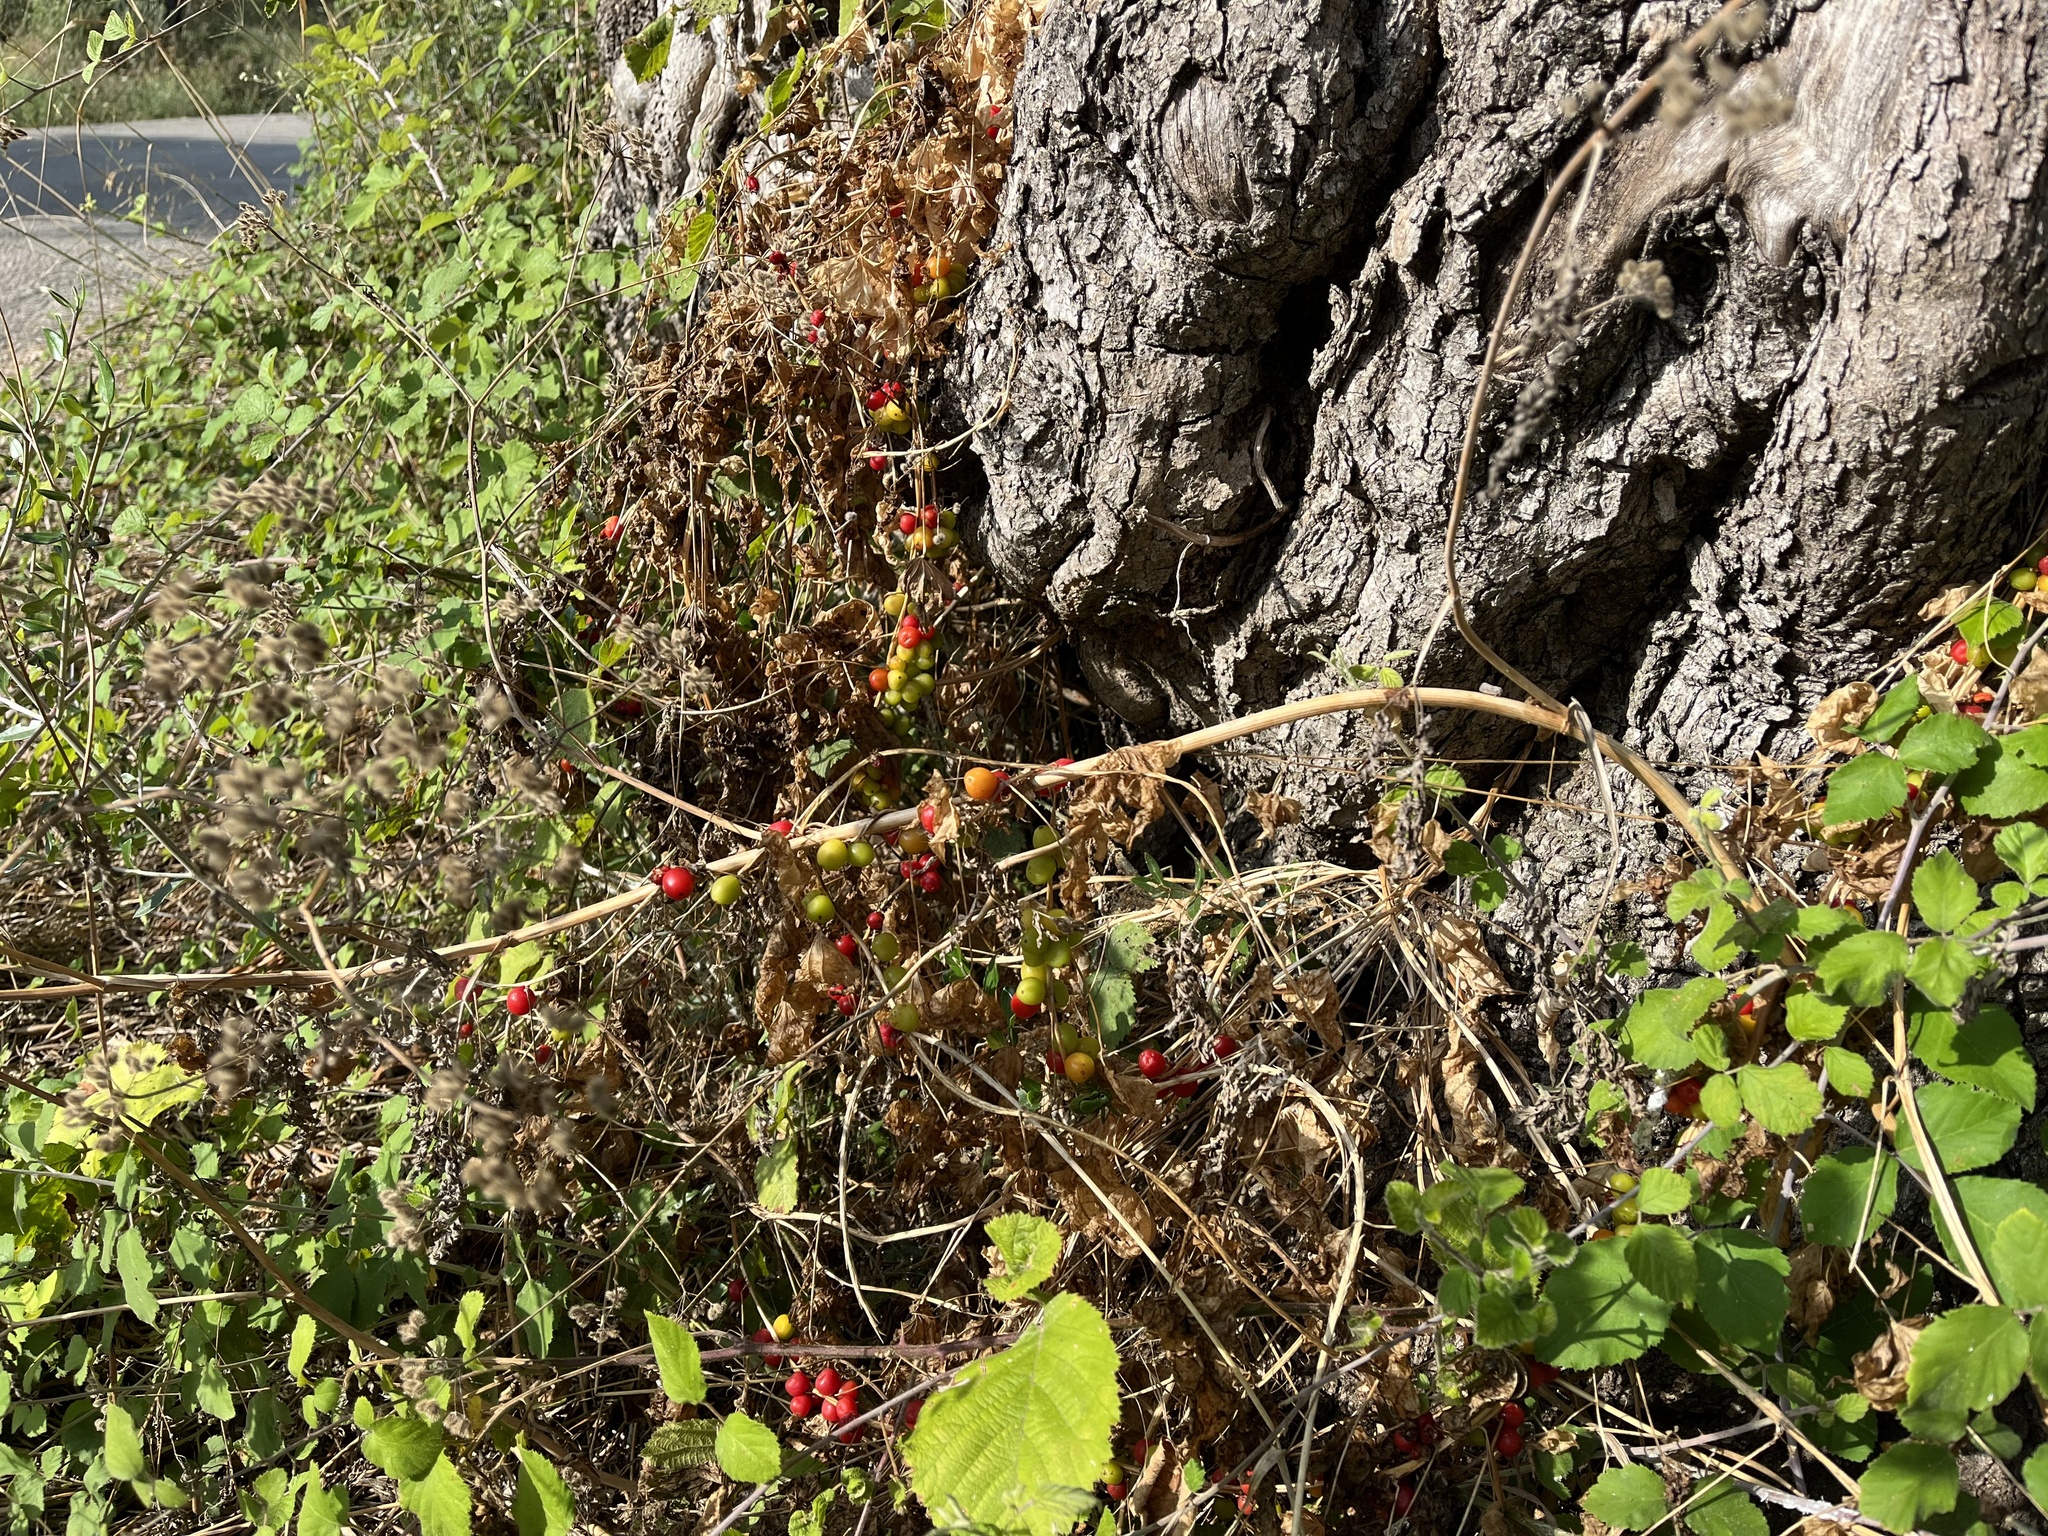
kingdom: Plantae
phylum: Tracheophyta
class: Liliopsida
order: Dioscoreales
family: Dioscoreaceae
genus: Dioscorea
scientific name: Dioscorea communis
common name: Black-bindweed
